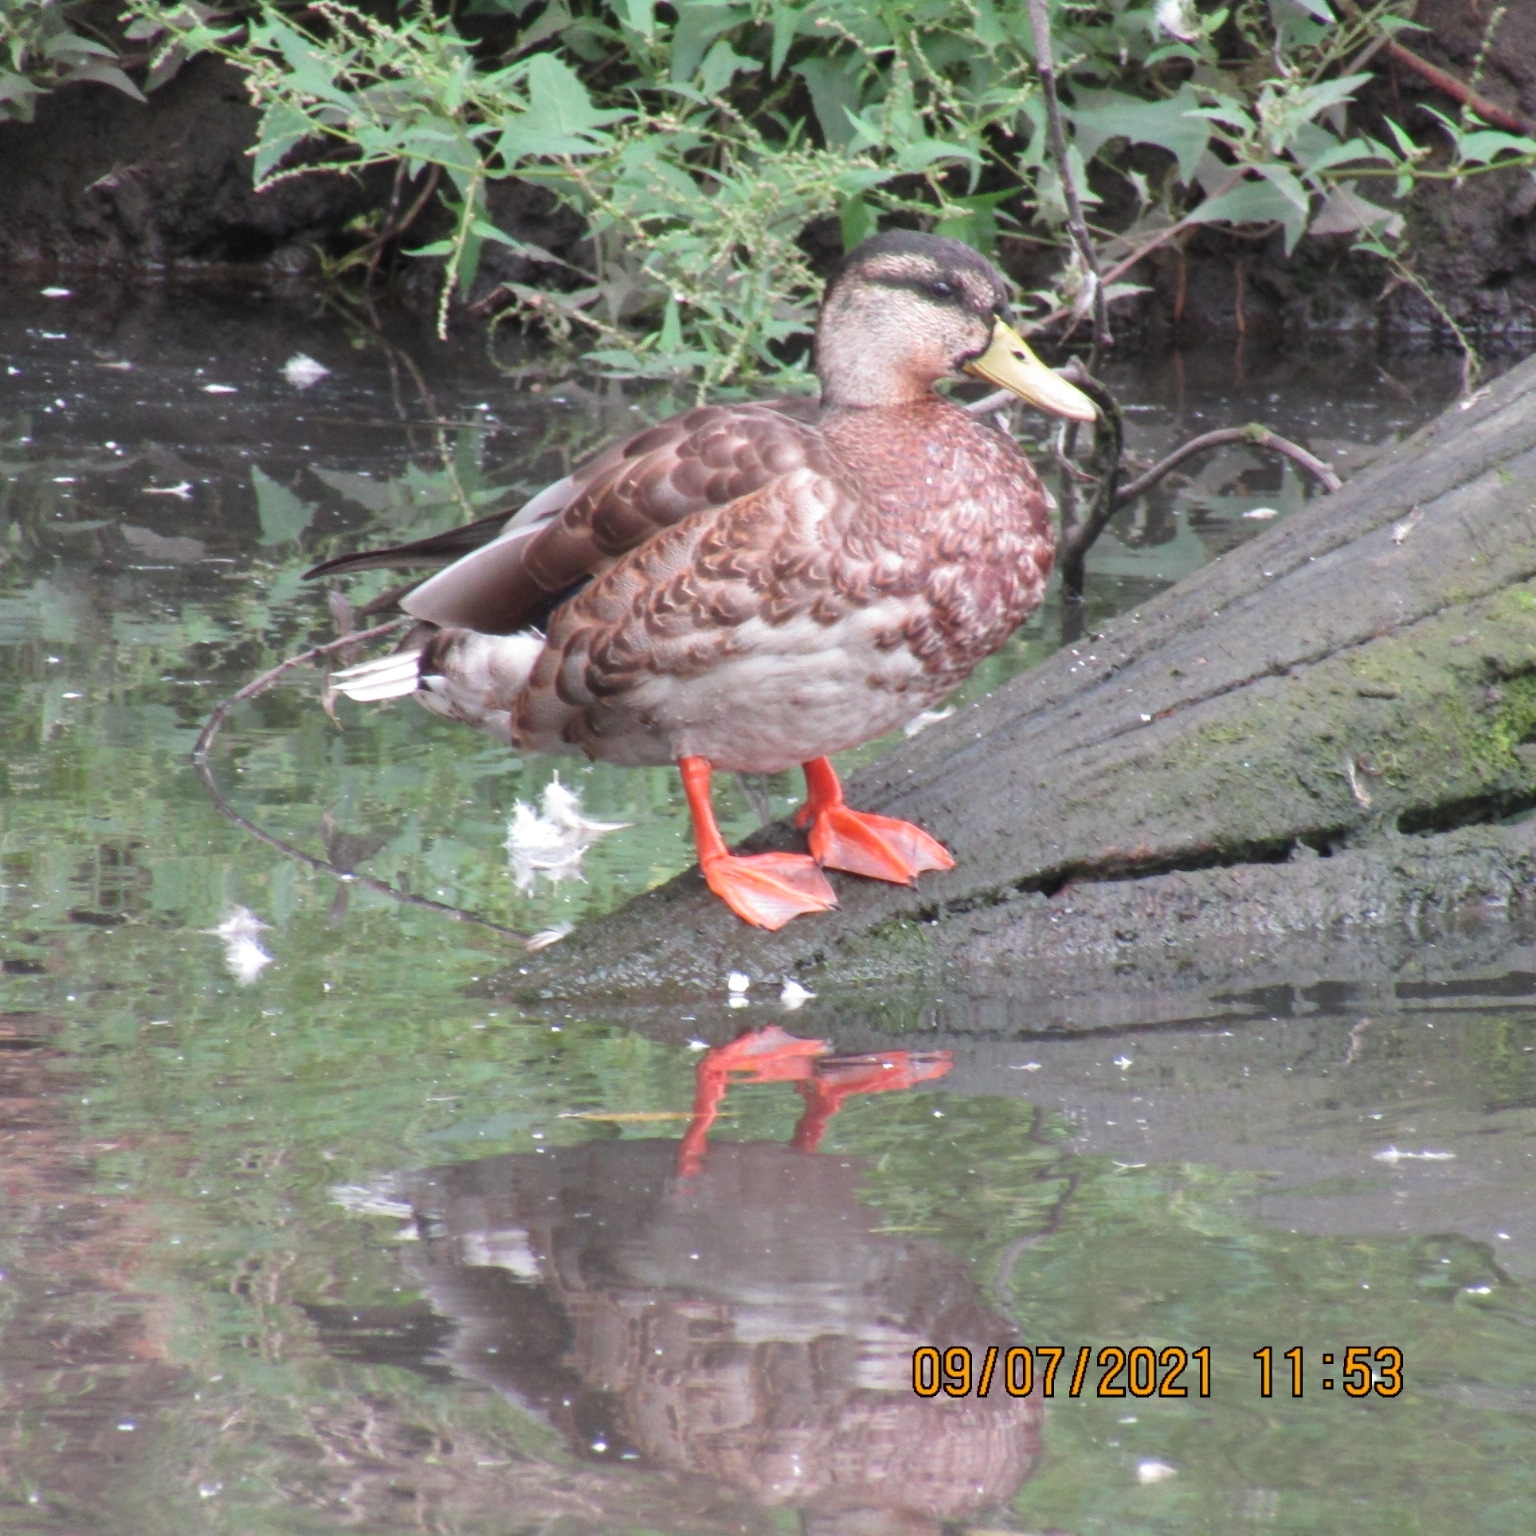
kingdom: Animalia
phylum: Chordata
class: Aves
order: Anseriformes
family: Anatidae
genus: Anas
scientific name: Anas platyrhynchos
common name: Mallard
